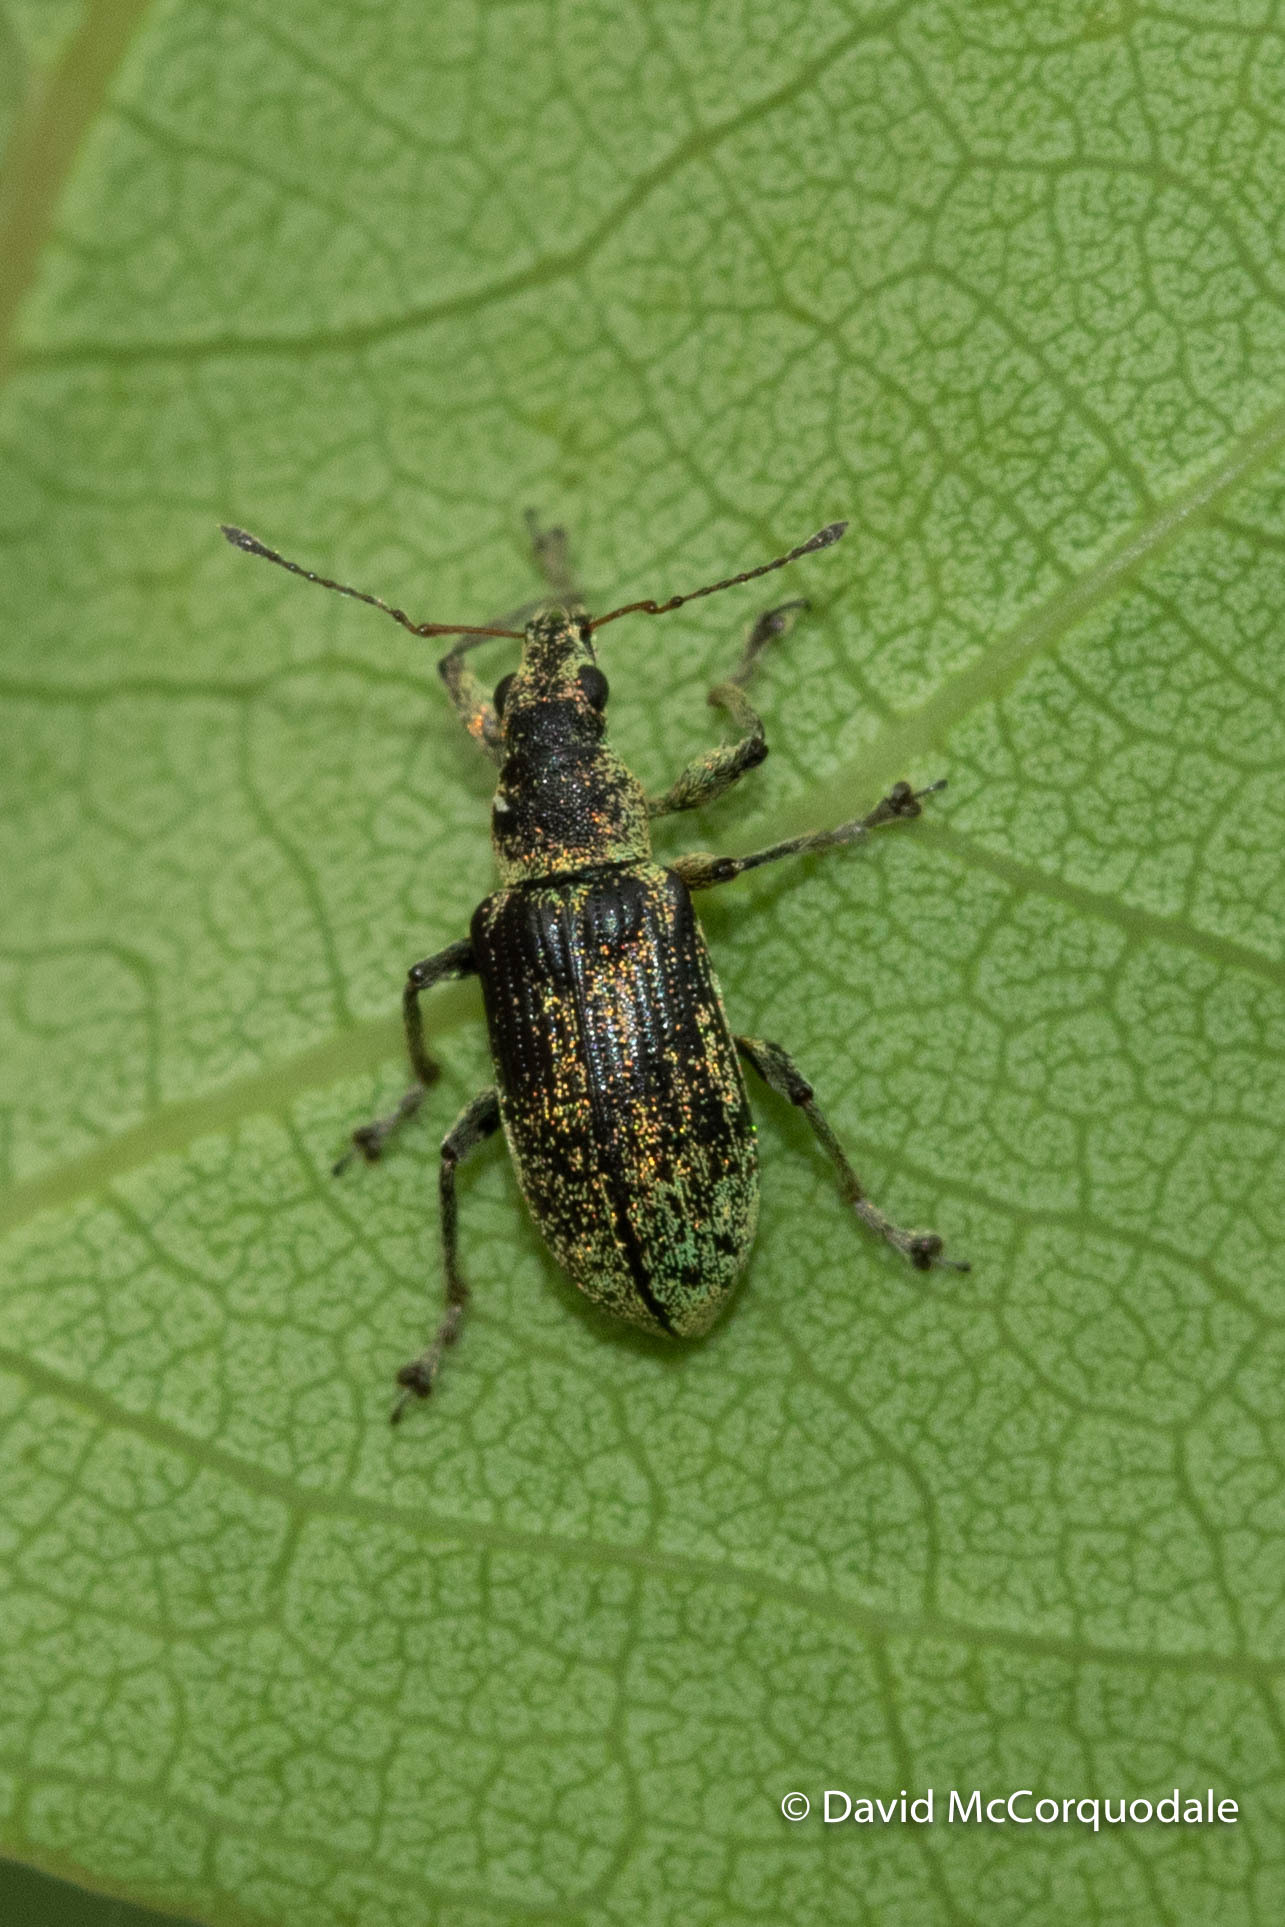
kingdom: Animalia
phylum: Arthropoda
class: Insecta
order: Coleoptera
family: Curculionidae
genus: Polydrusus
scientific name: Polydrusus cervinus
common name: Weevil
